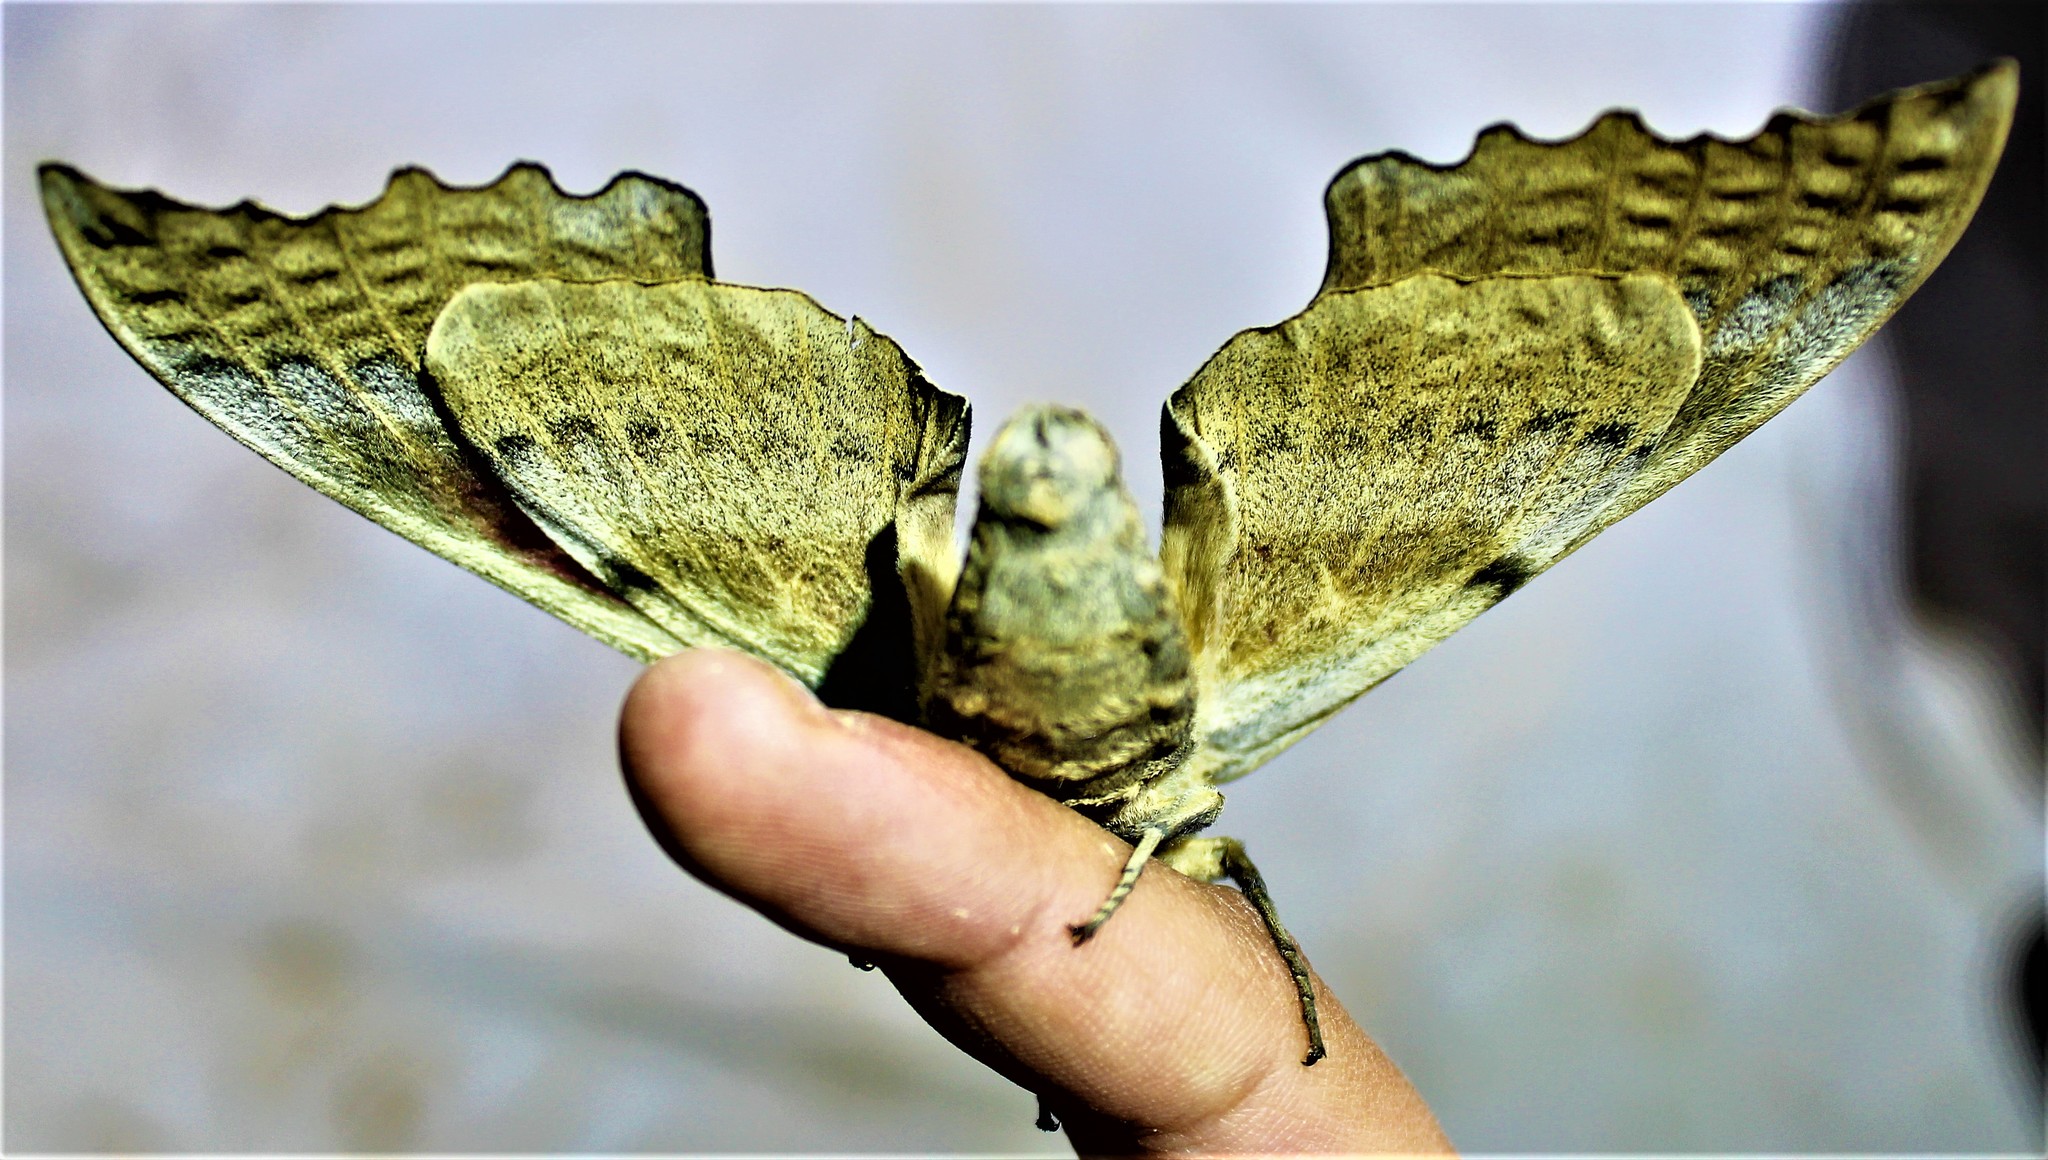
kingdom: Animalia
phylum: Arthropoda
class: Insecta
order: Lepidoptera
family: Sphingidae
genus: Pachysphinx
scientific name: Pachysphinx occidentalis
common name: Western poplar sphinx
